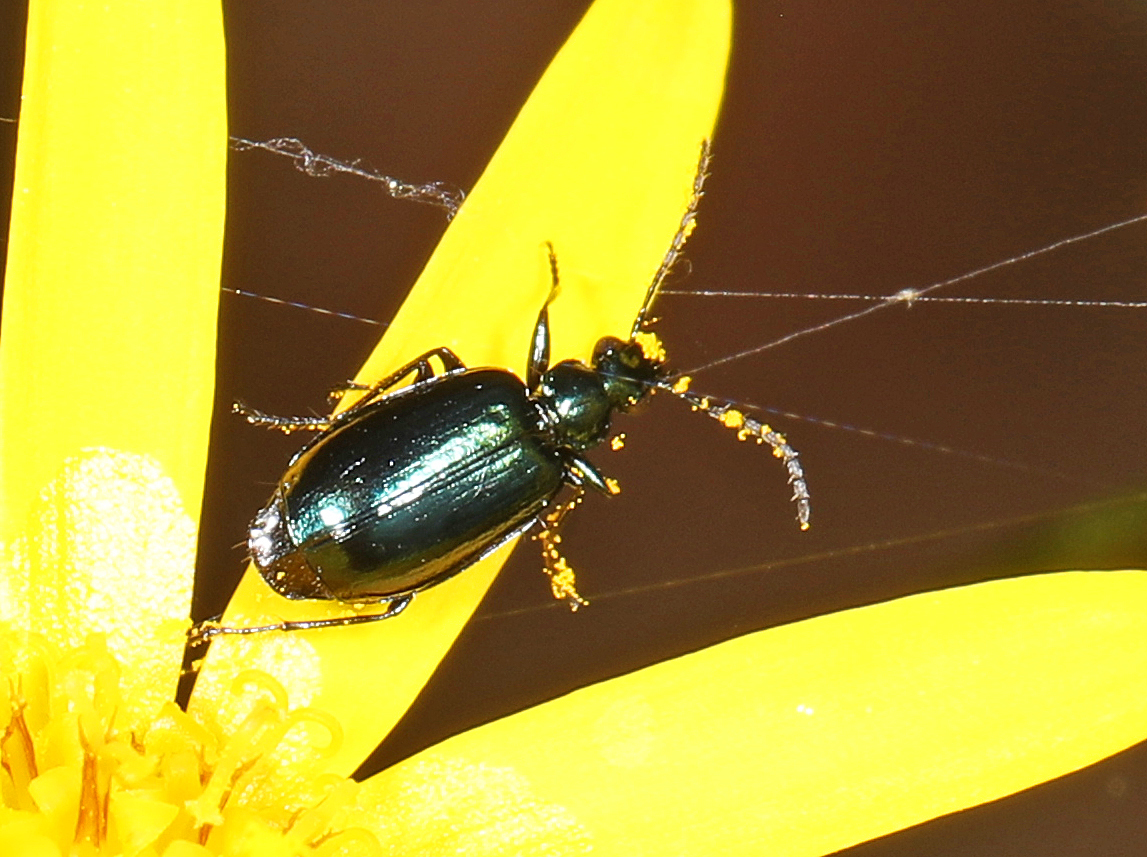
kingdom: Animalia
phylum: Arthropoda
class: Insecta
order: Coleoptera
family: Carabidae
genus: Lebia
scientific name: Lebia viridis
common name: Flower lebia beetle
